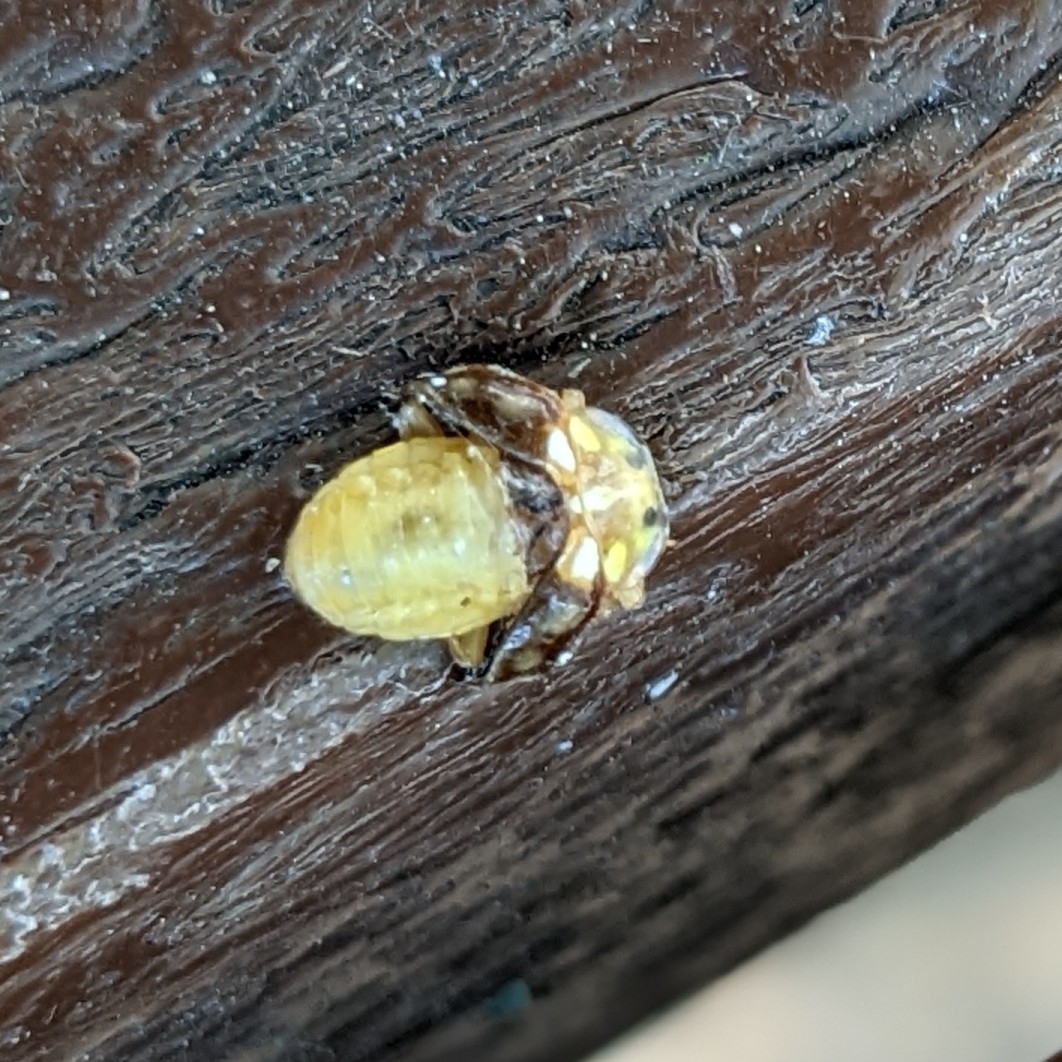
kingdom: Animalia
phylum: Arthropoda
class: Insecta
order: Coleoptera
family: Coccinellidae
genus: Halyzia
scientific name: Halyzia sedecimguttata
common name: Orange ladybird
